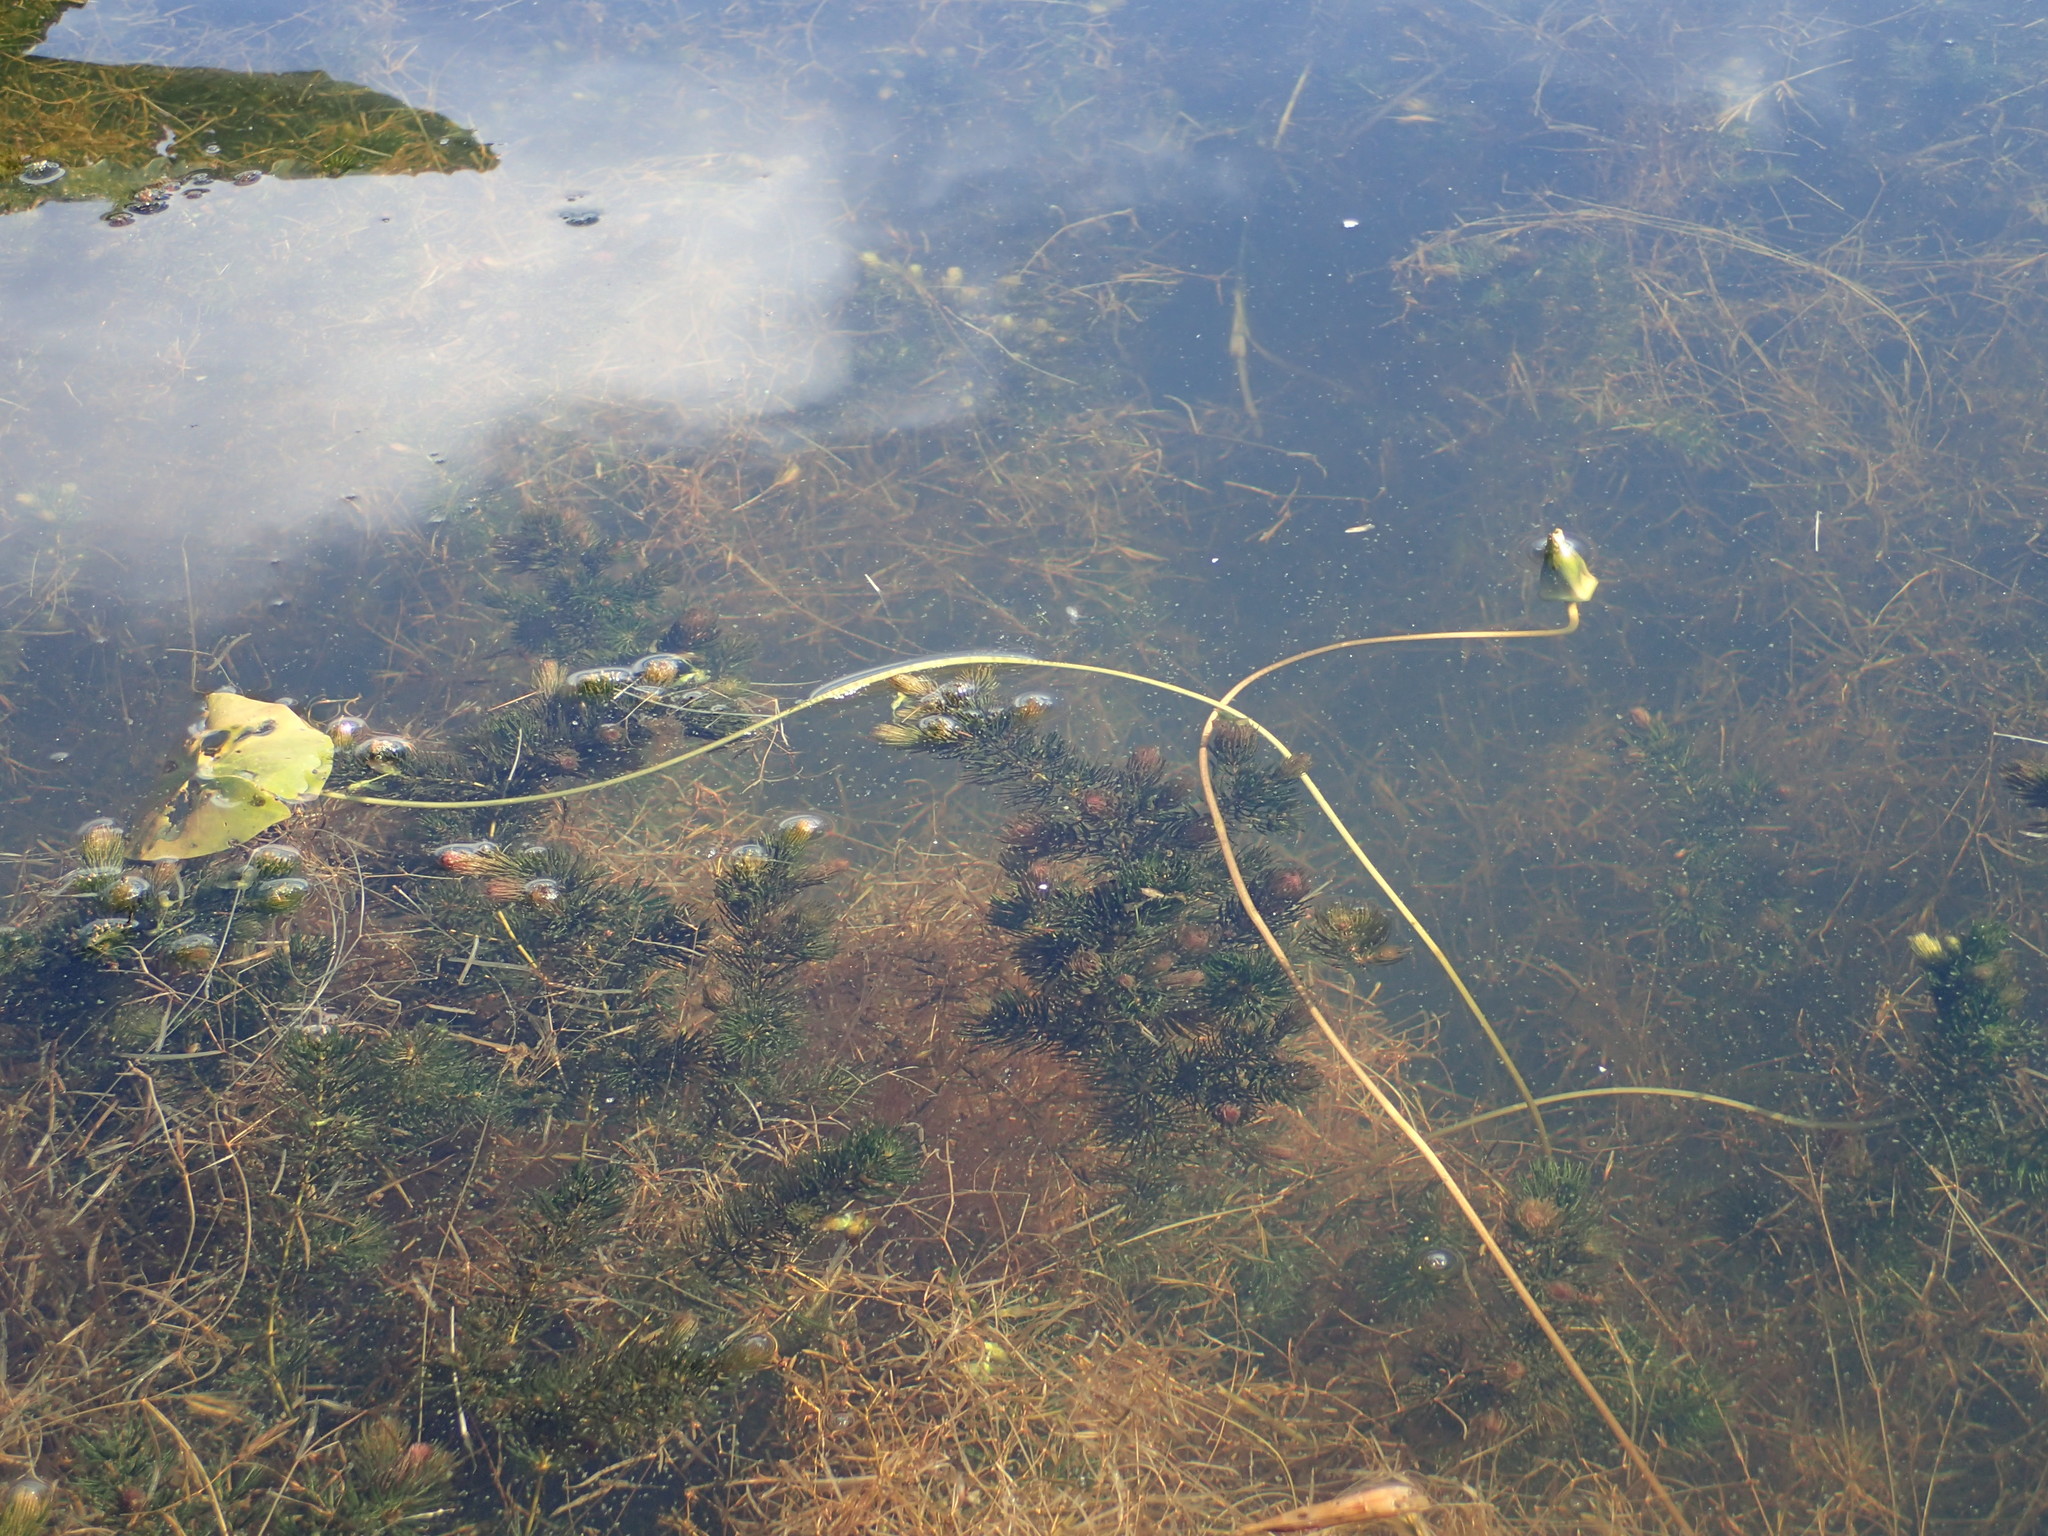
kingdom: Plantae
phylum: Tracheophyta
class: Magnoliopsida
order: Nymphaeales
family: Nymphaeaceae
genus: Nymphaea
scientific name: Nymphaea tetragona
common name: Pygmy water-lily
